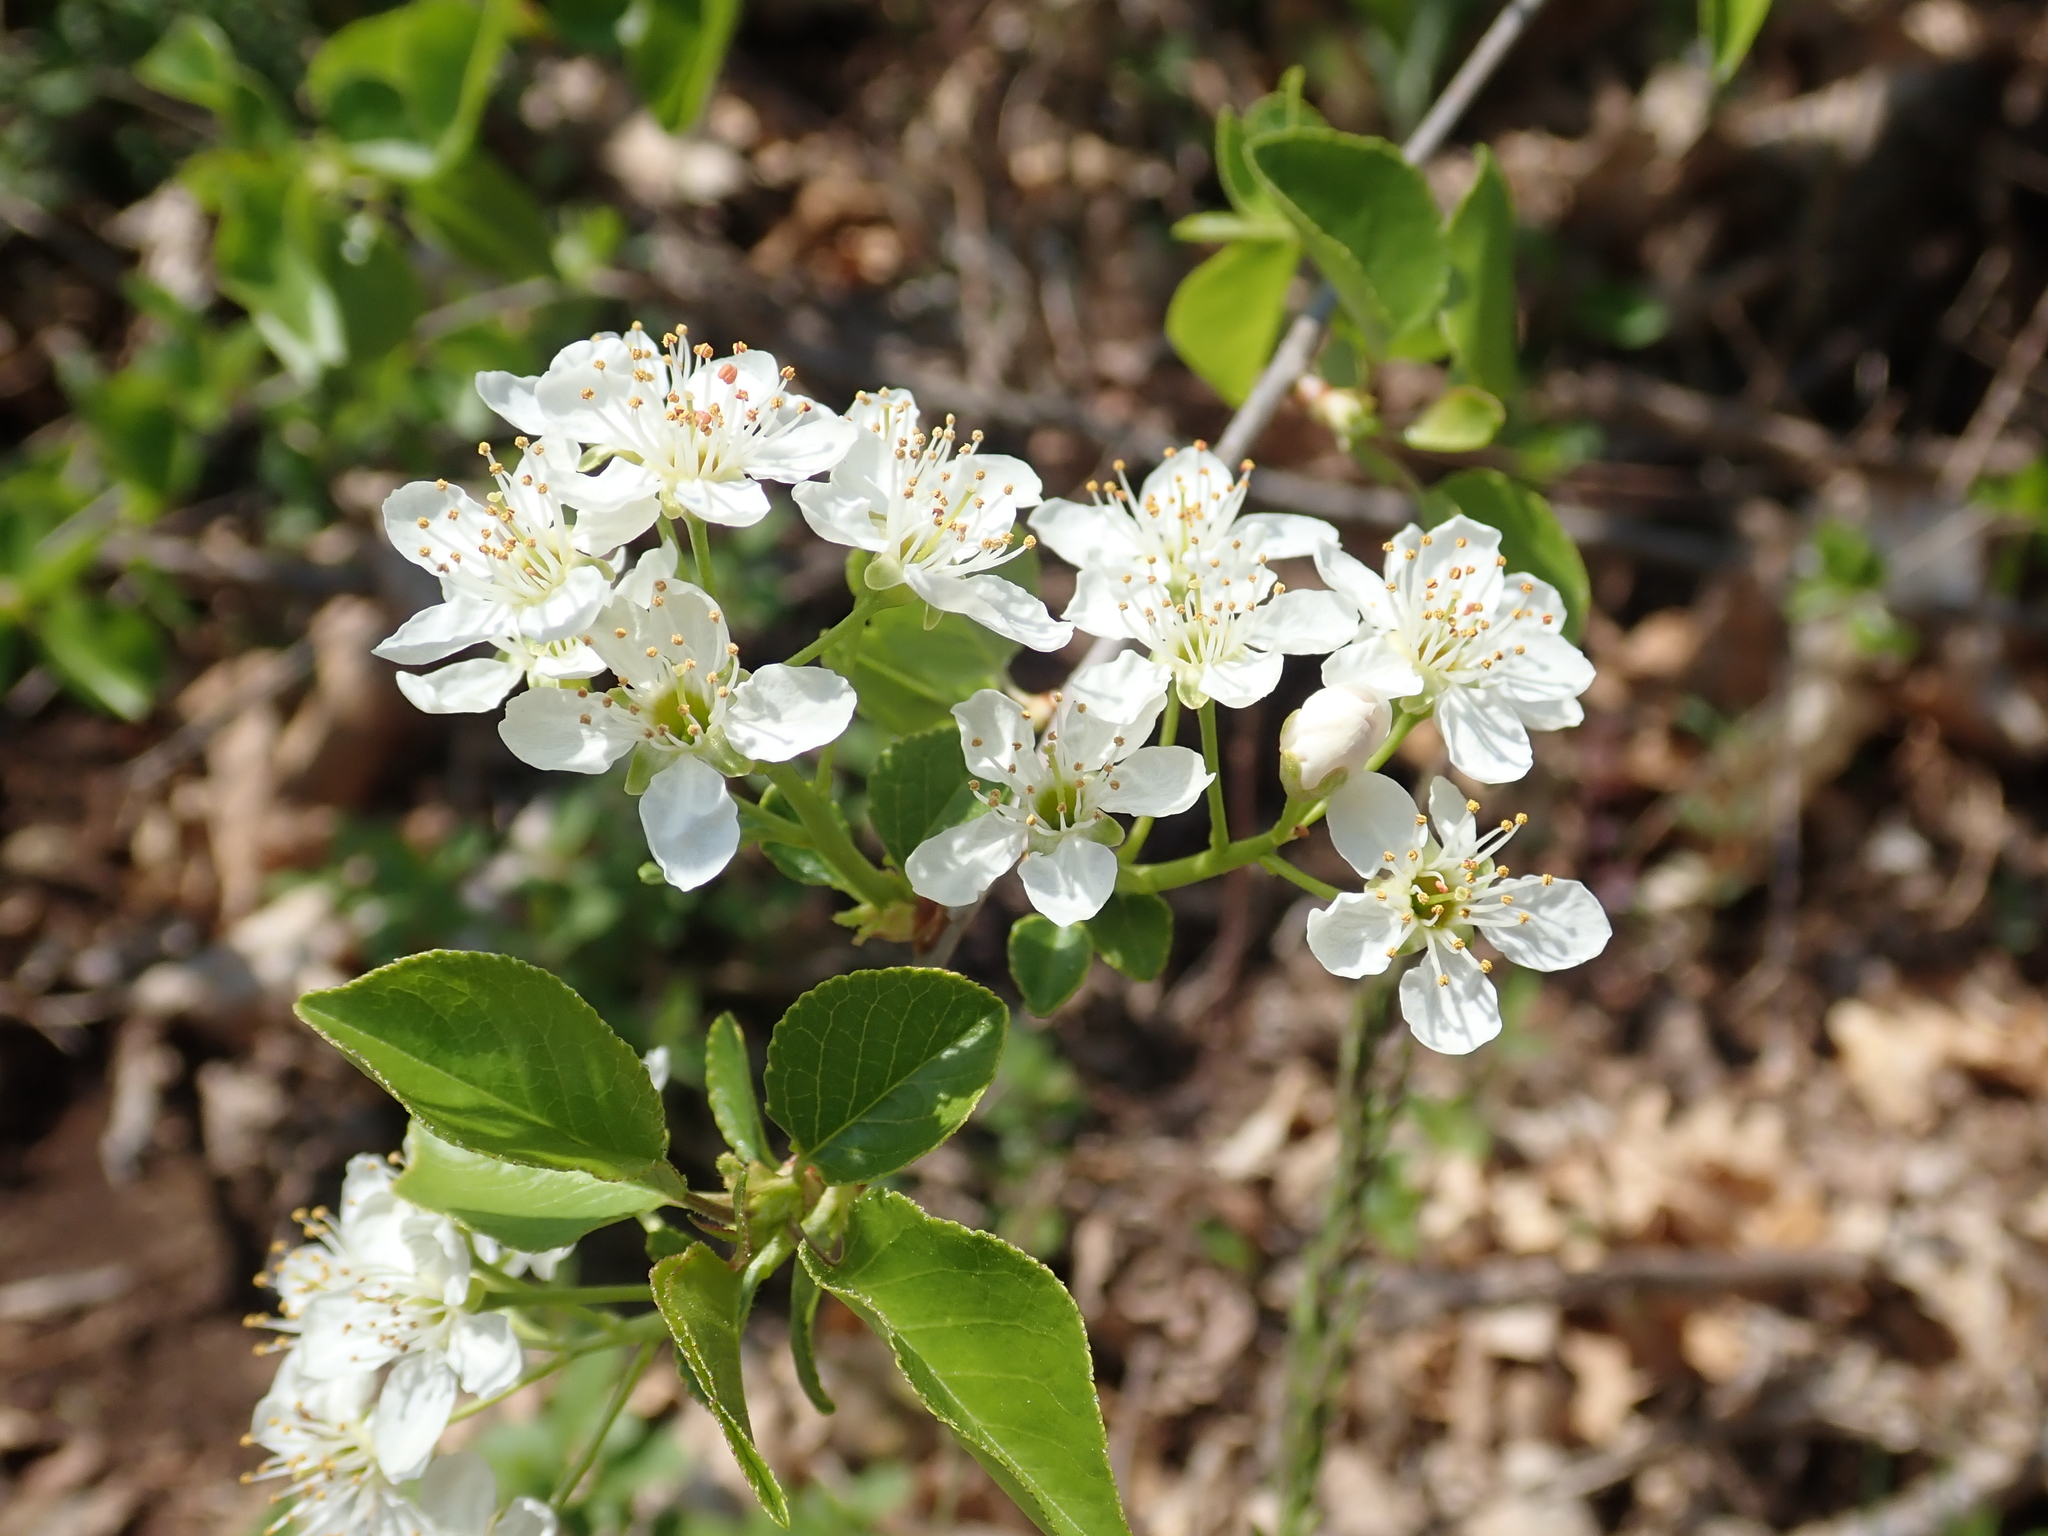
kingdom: Plantae
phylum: Tracheophyta
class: Magnoliopsida
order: Rosales
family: Rosaceae
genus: Prunus
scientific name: Prunus mahaleb
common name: Mahaleb cherry
